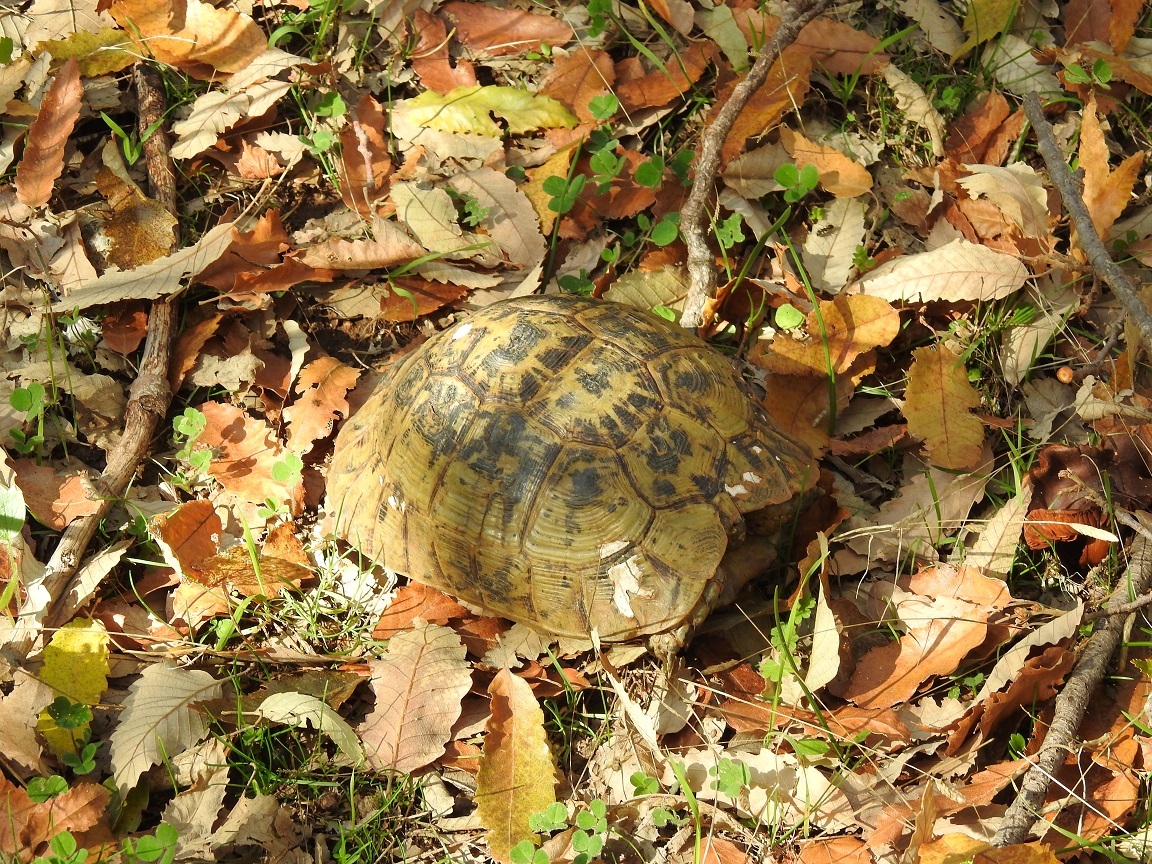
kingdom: Animalia
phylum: Chordata
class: Testudines
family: Testudinidae
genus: Testudo
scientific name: Testudo graeca
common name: Common tortoise
